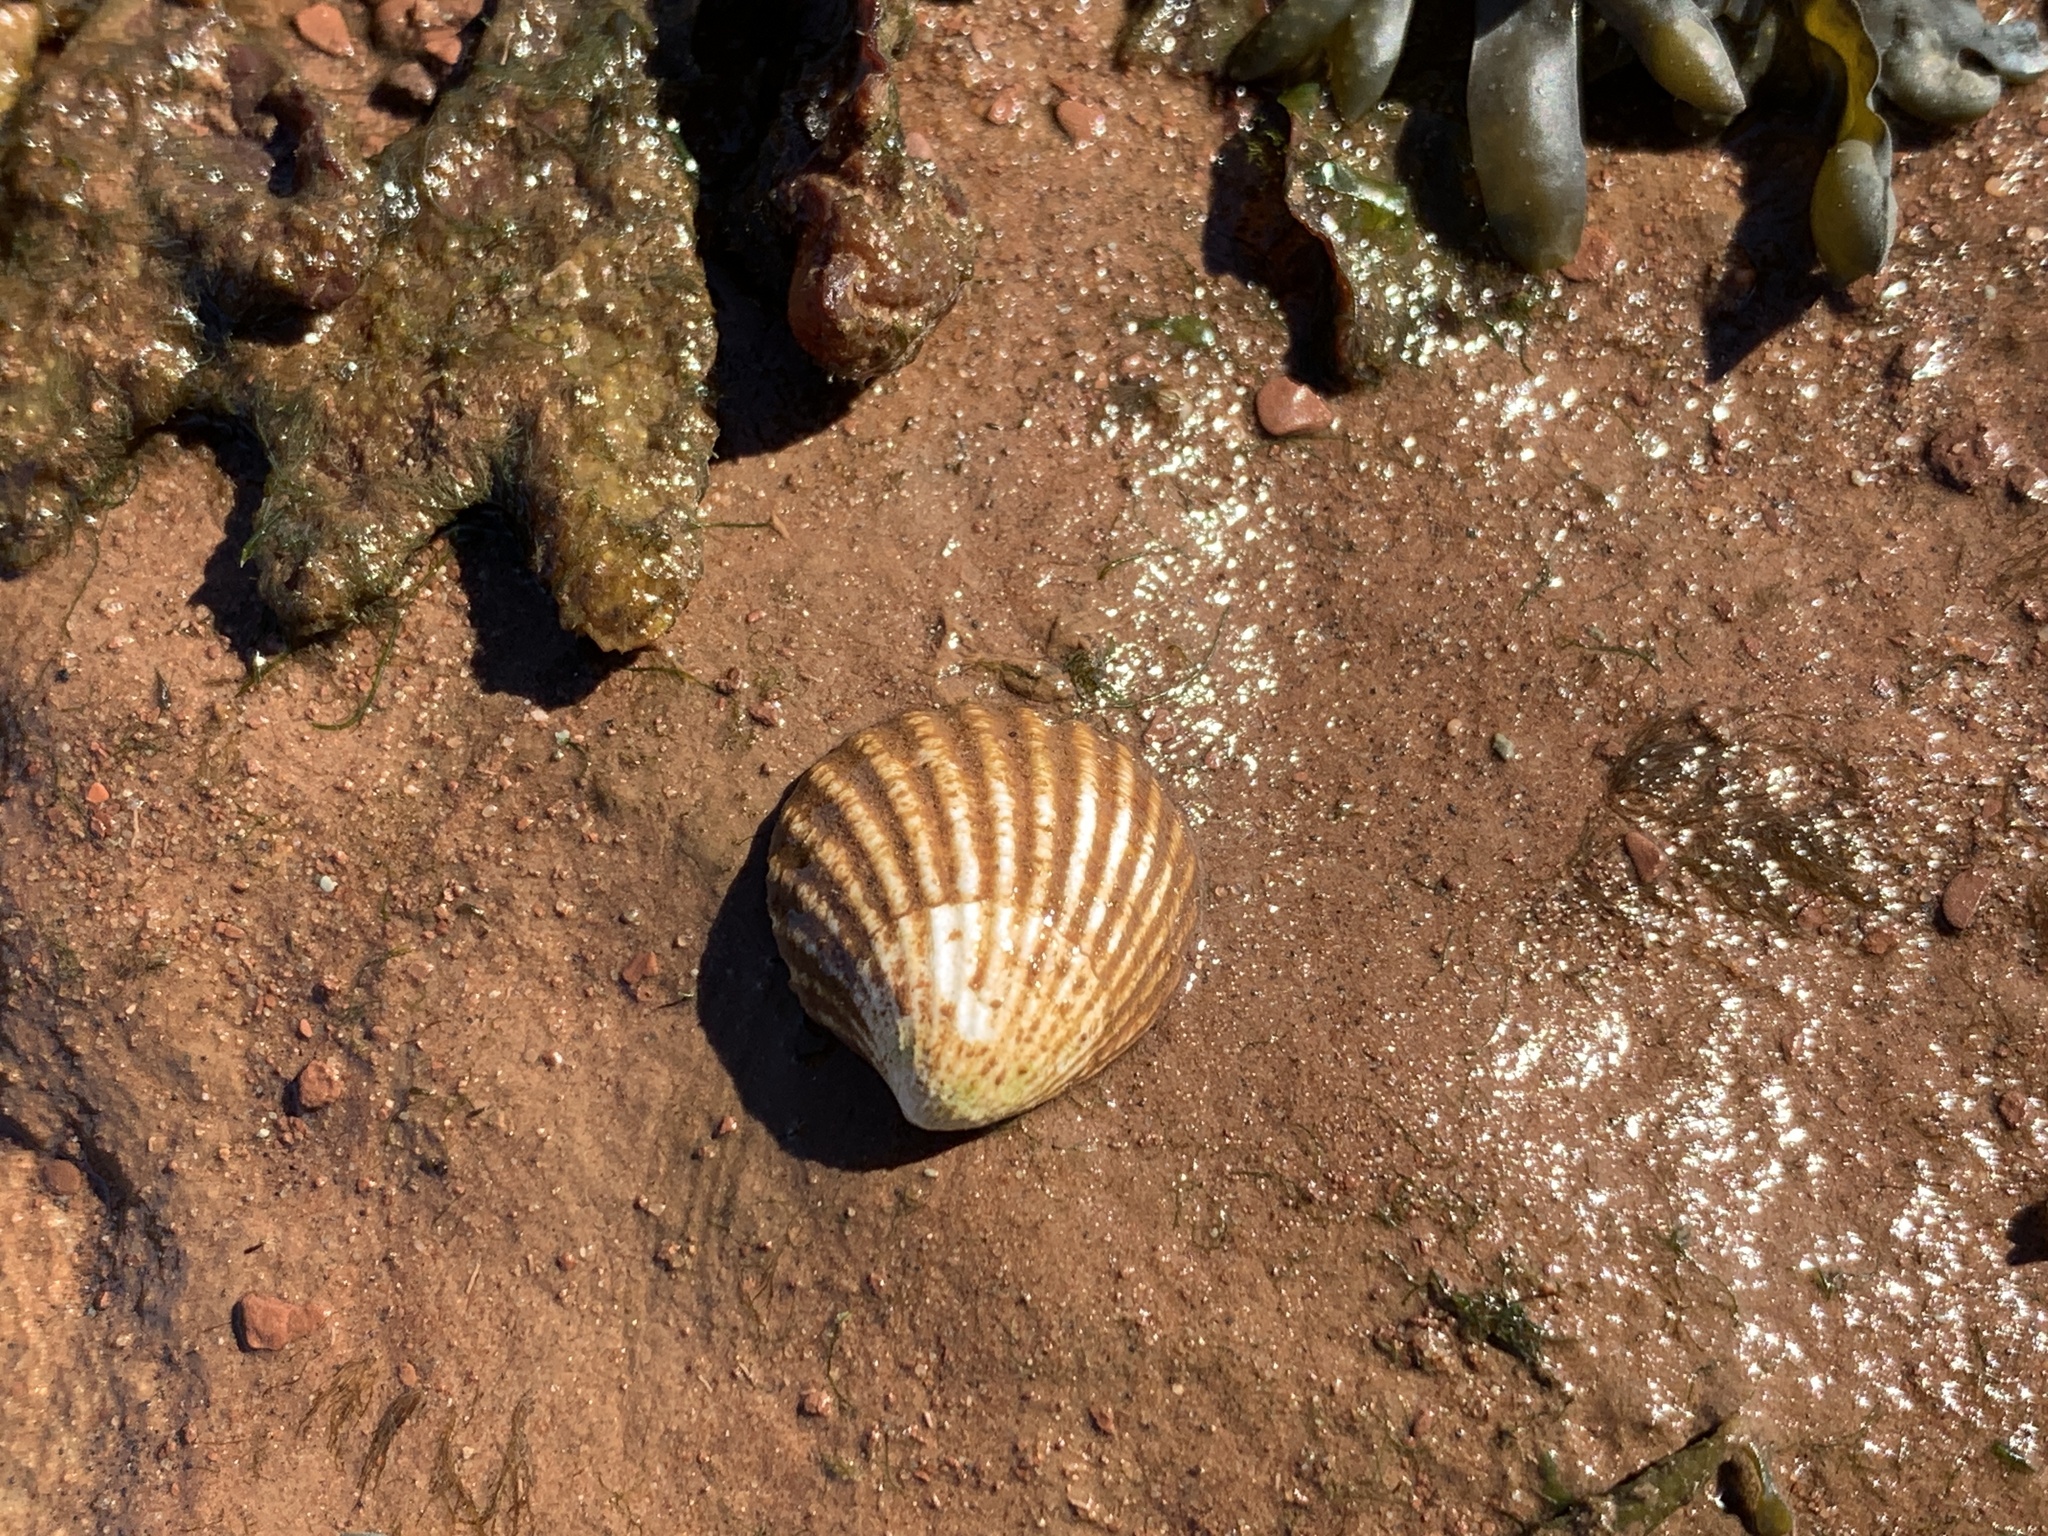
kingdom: Animalia
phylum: Mollusca
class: Bivalvia
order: Carditida
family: Carditidae
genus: Cyclocardia
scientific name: Cyclocardia borealis
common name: Northern cyclocardia
